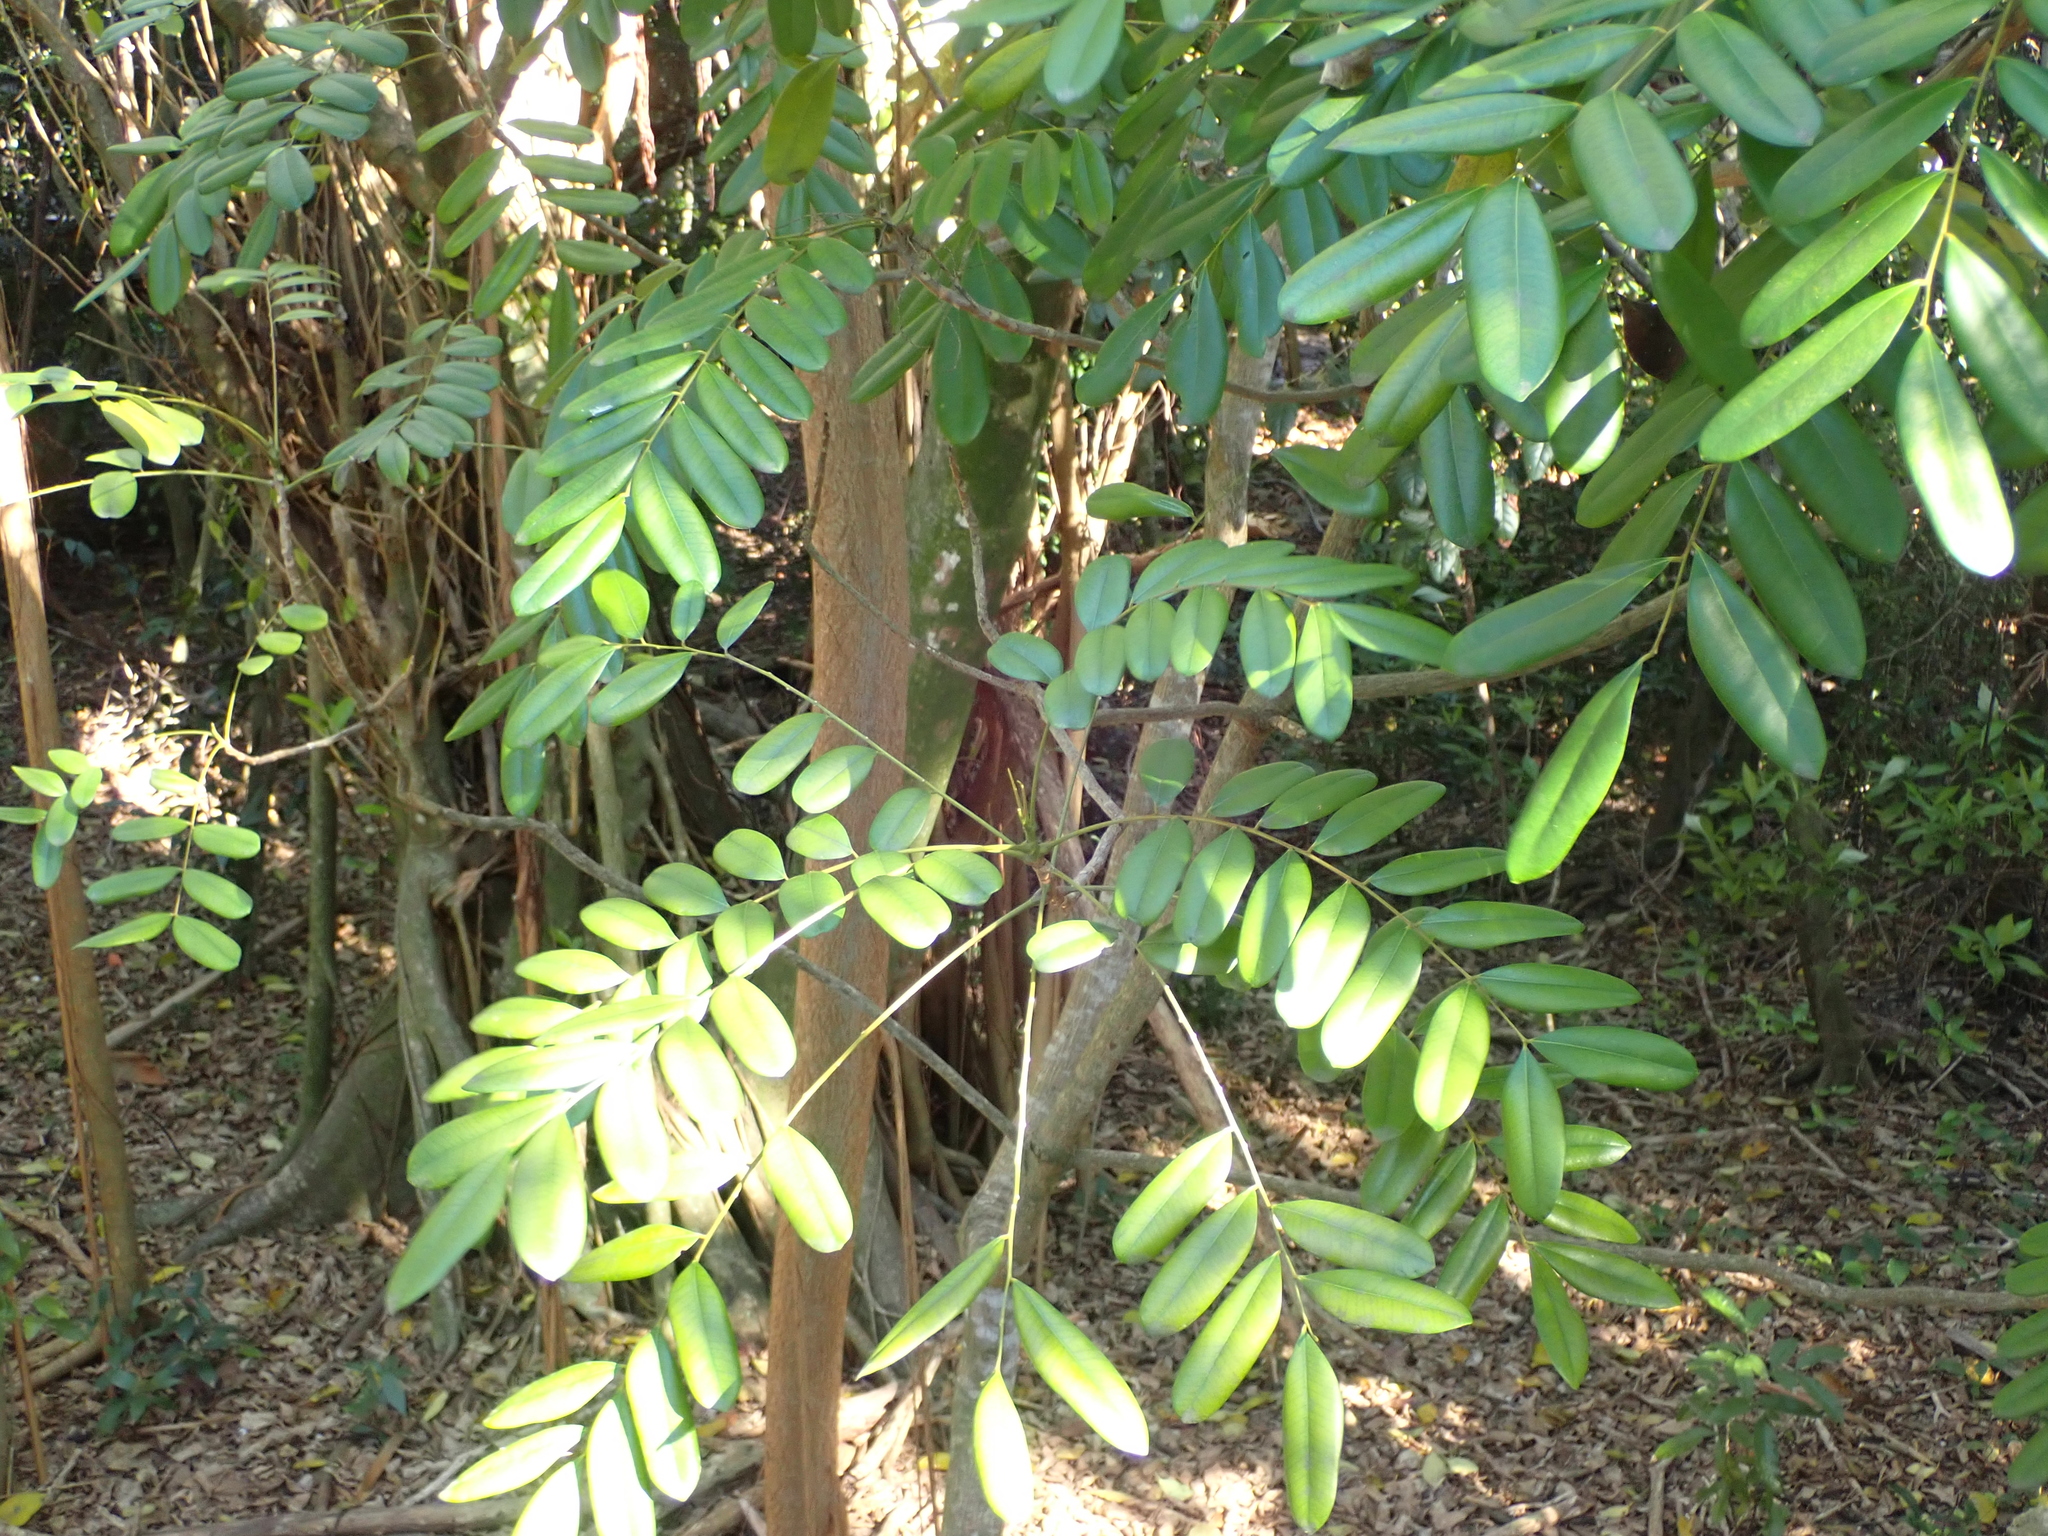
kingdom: Plantae
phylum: Tracheophyta
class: Magnoliopsida
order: Sapindales
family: Simaroubaceae
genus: Simarouba
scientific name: Simarouba glauca
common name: Dysentery-bark
